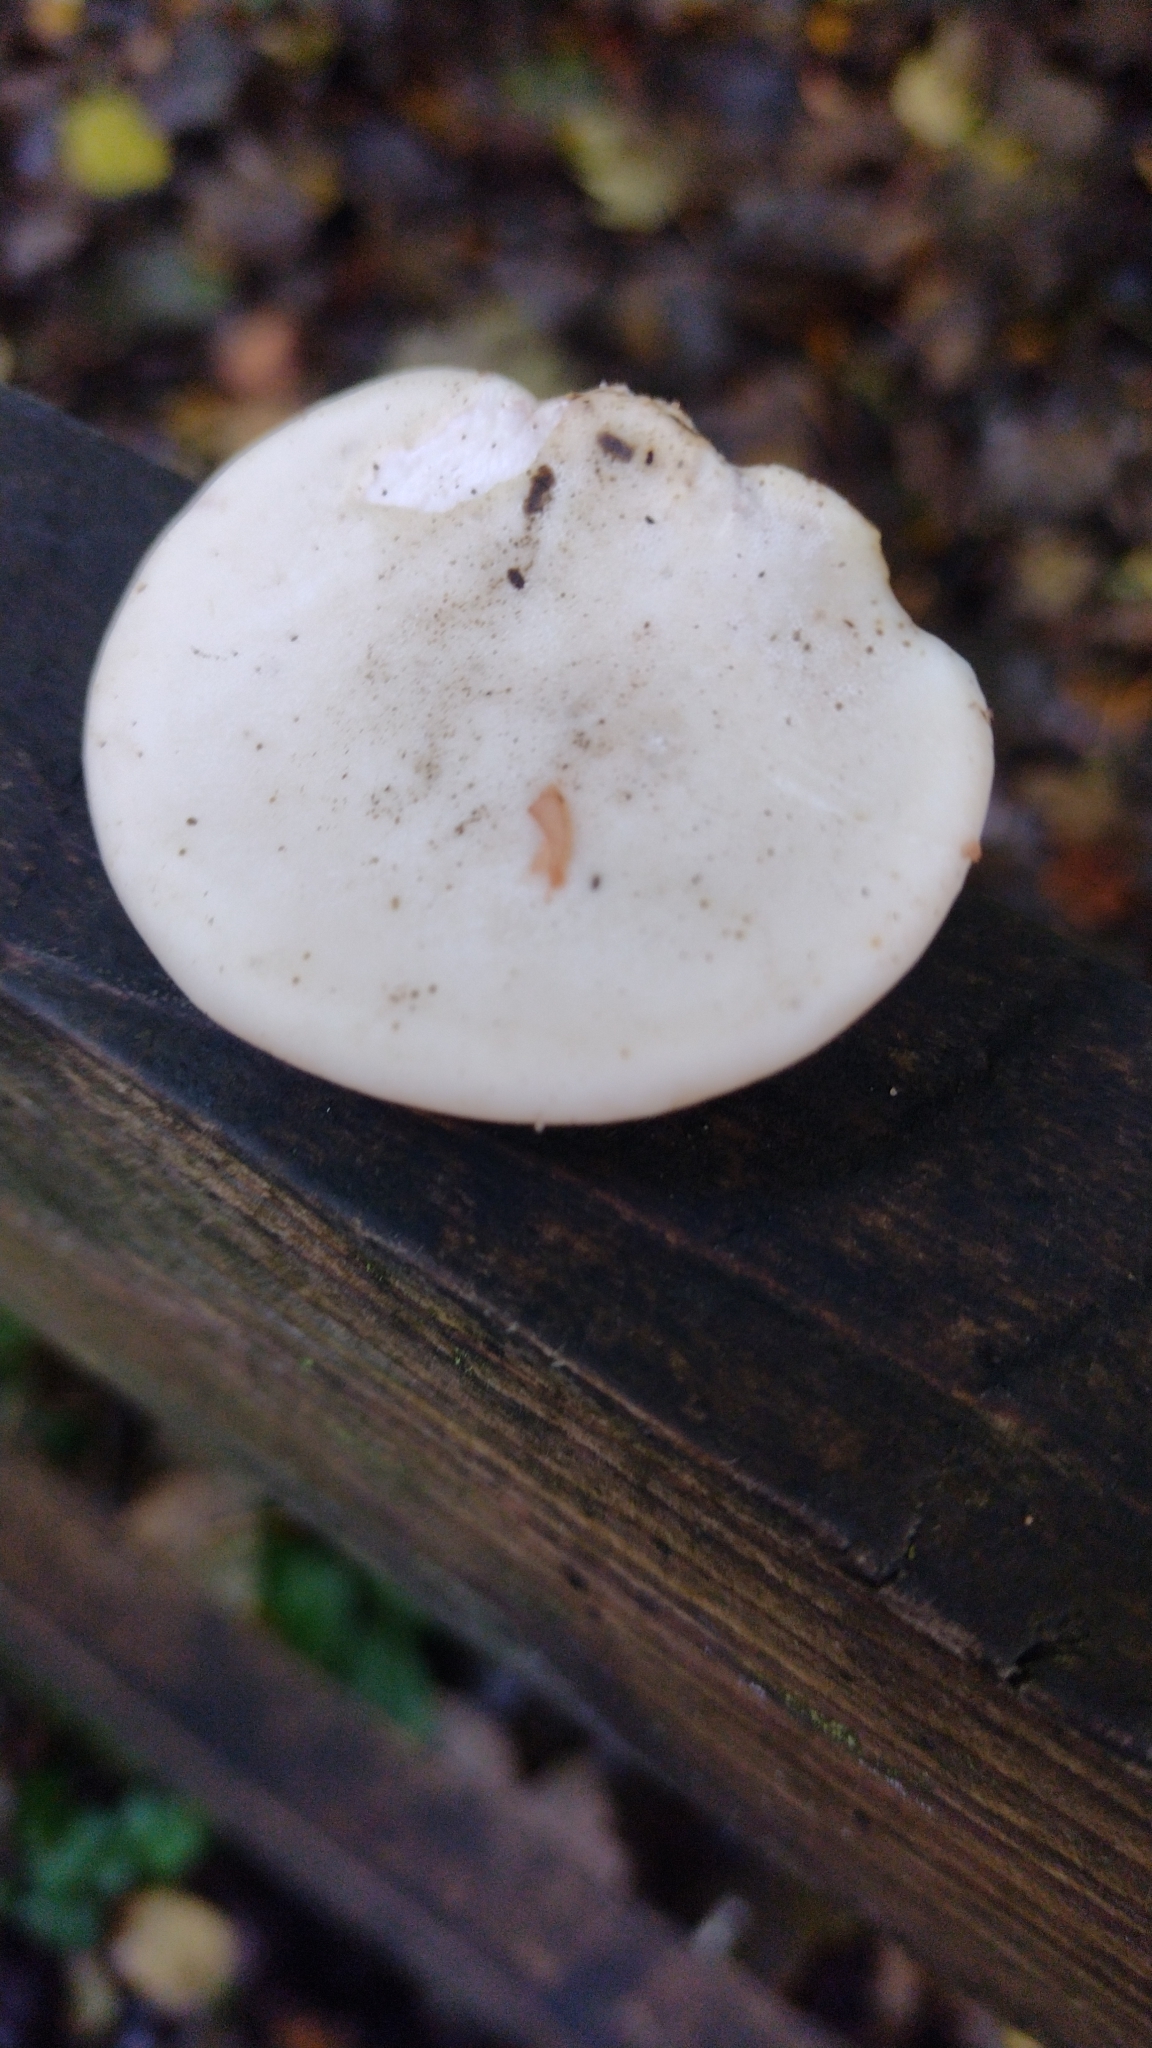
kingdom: Fungi
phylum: Basidiomycota
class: Agaricomycetes
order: Polyporales
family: Fomitopsidaceae
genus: Fomitopsis
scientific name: Fomitopsis betulina
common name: Birch polypore
